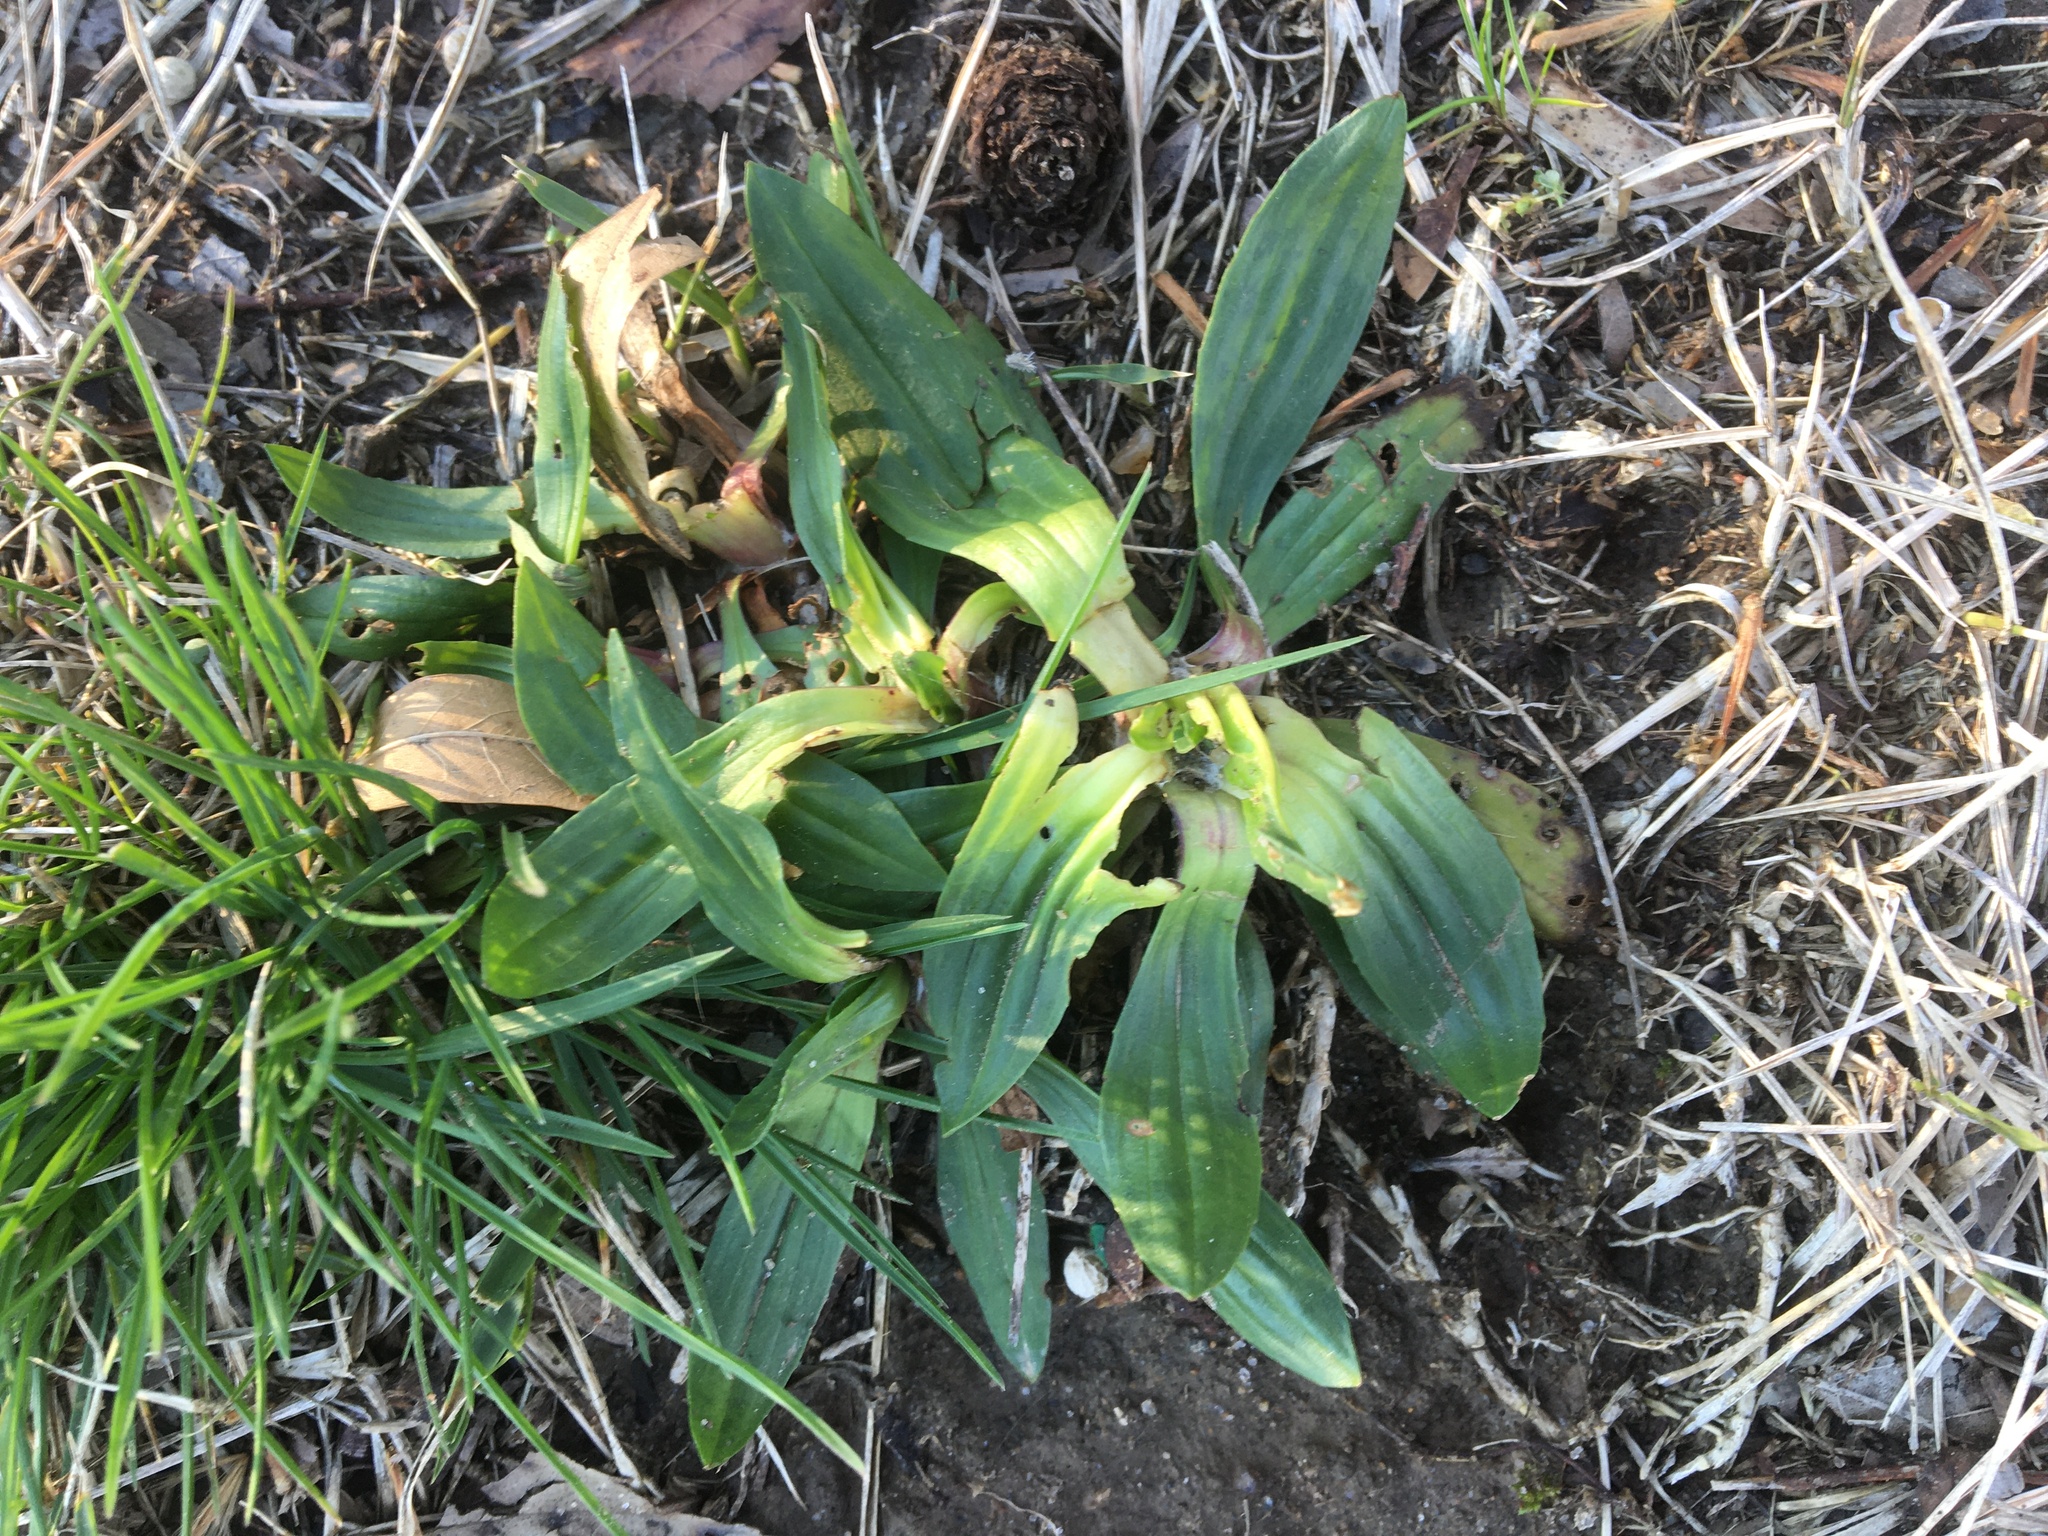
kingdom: Plantae
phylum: Tracheophyta
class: Magnoliopsida
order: Lamiales
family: Plantaginaceae
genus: Plantago
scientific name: Plantago lanceolata
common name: Ribwort plantain
